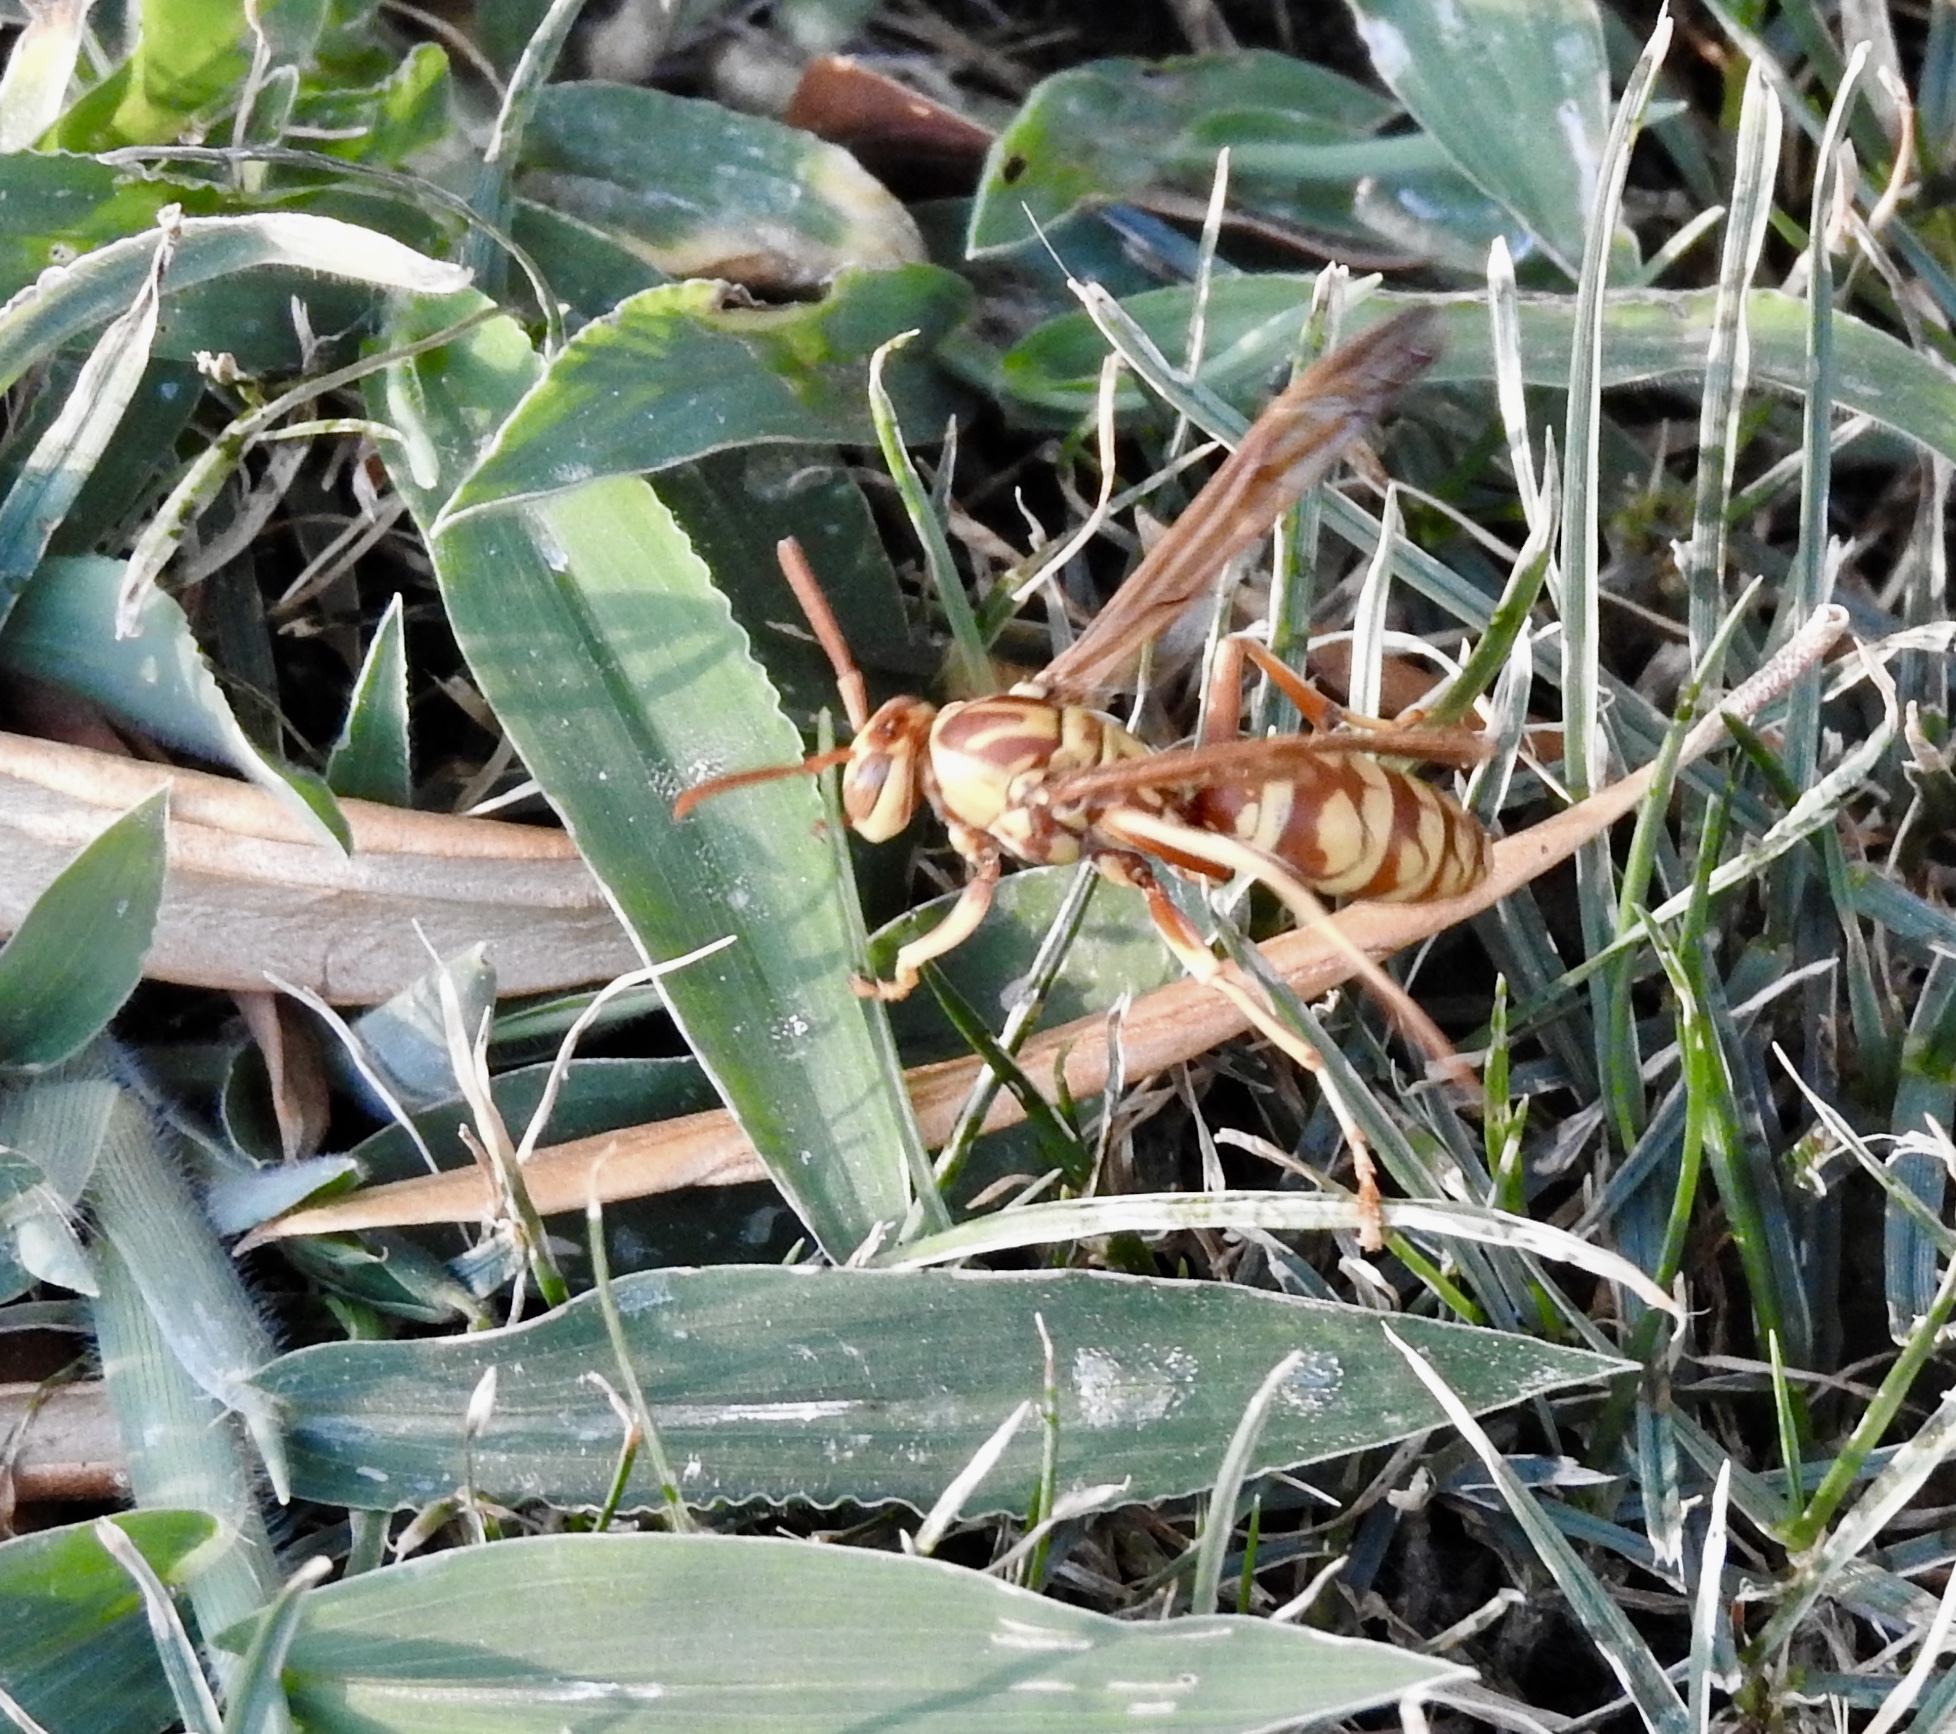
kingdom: Animalia
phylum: Arthropoda
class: Insecta
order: Hymenoptera
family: Eumenidae
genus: Polistes
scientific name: Polistes apachus
